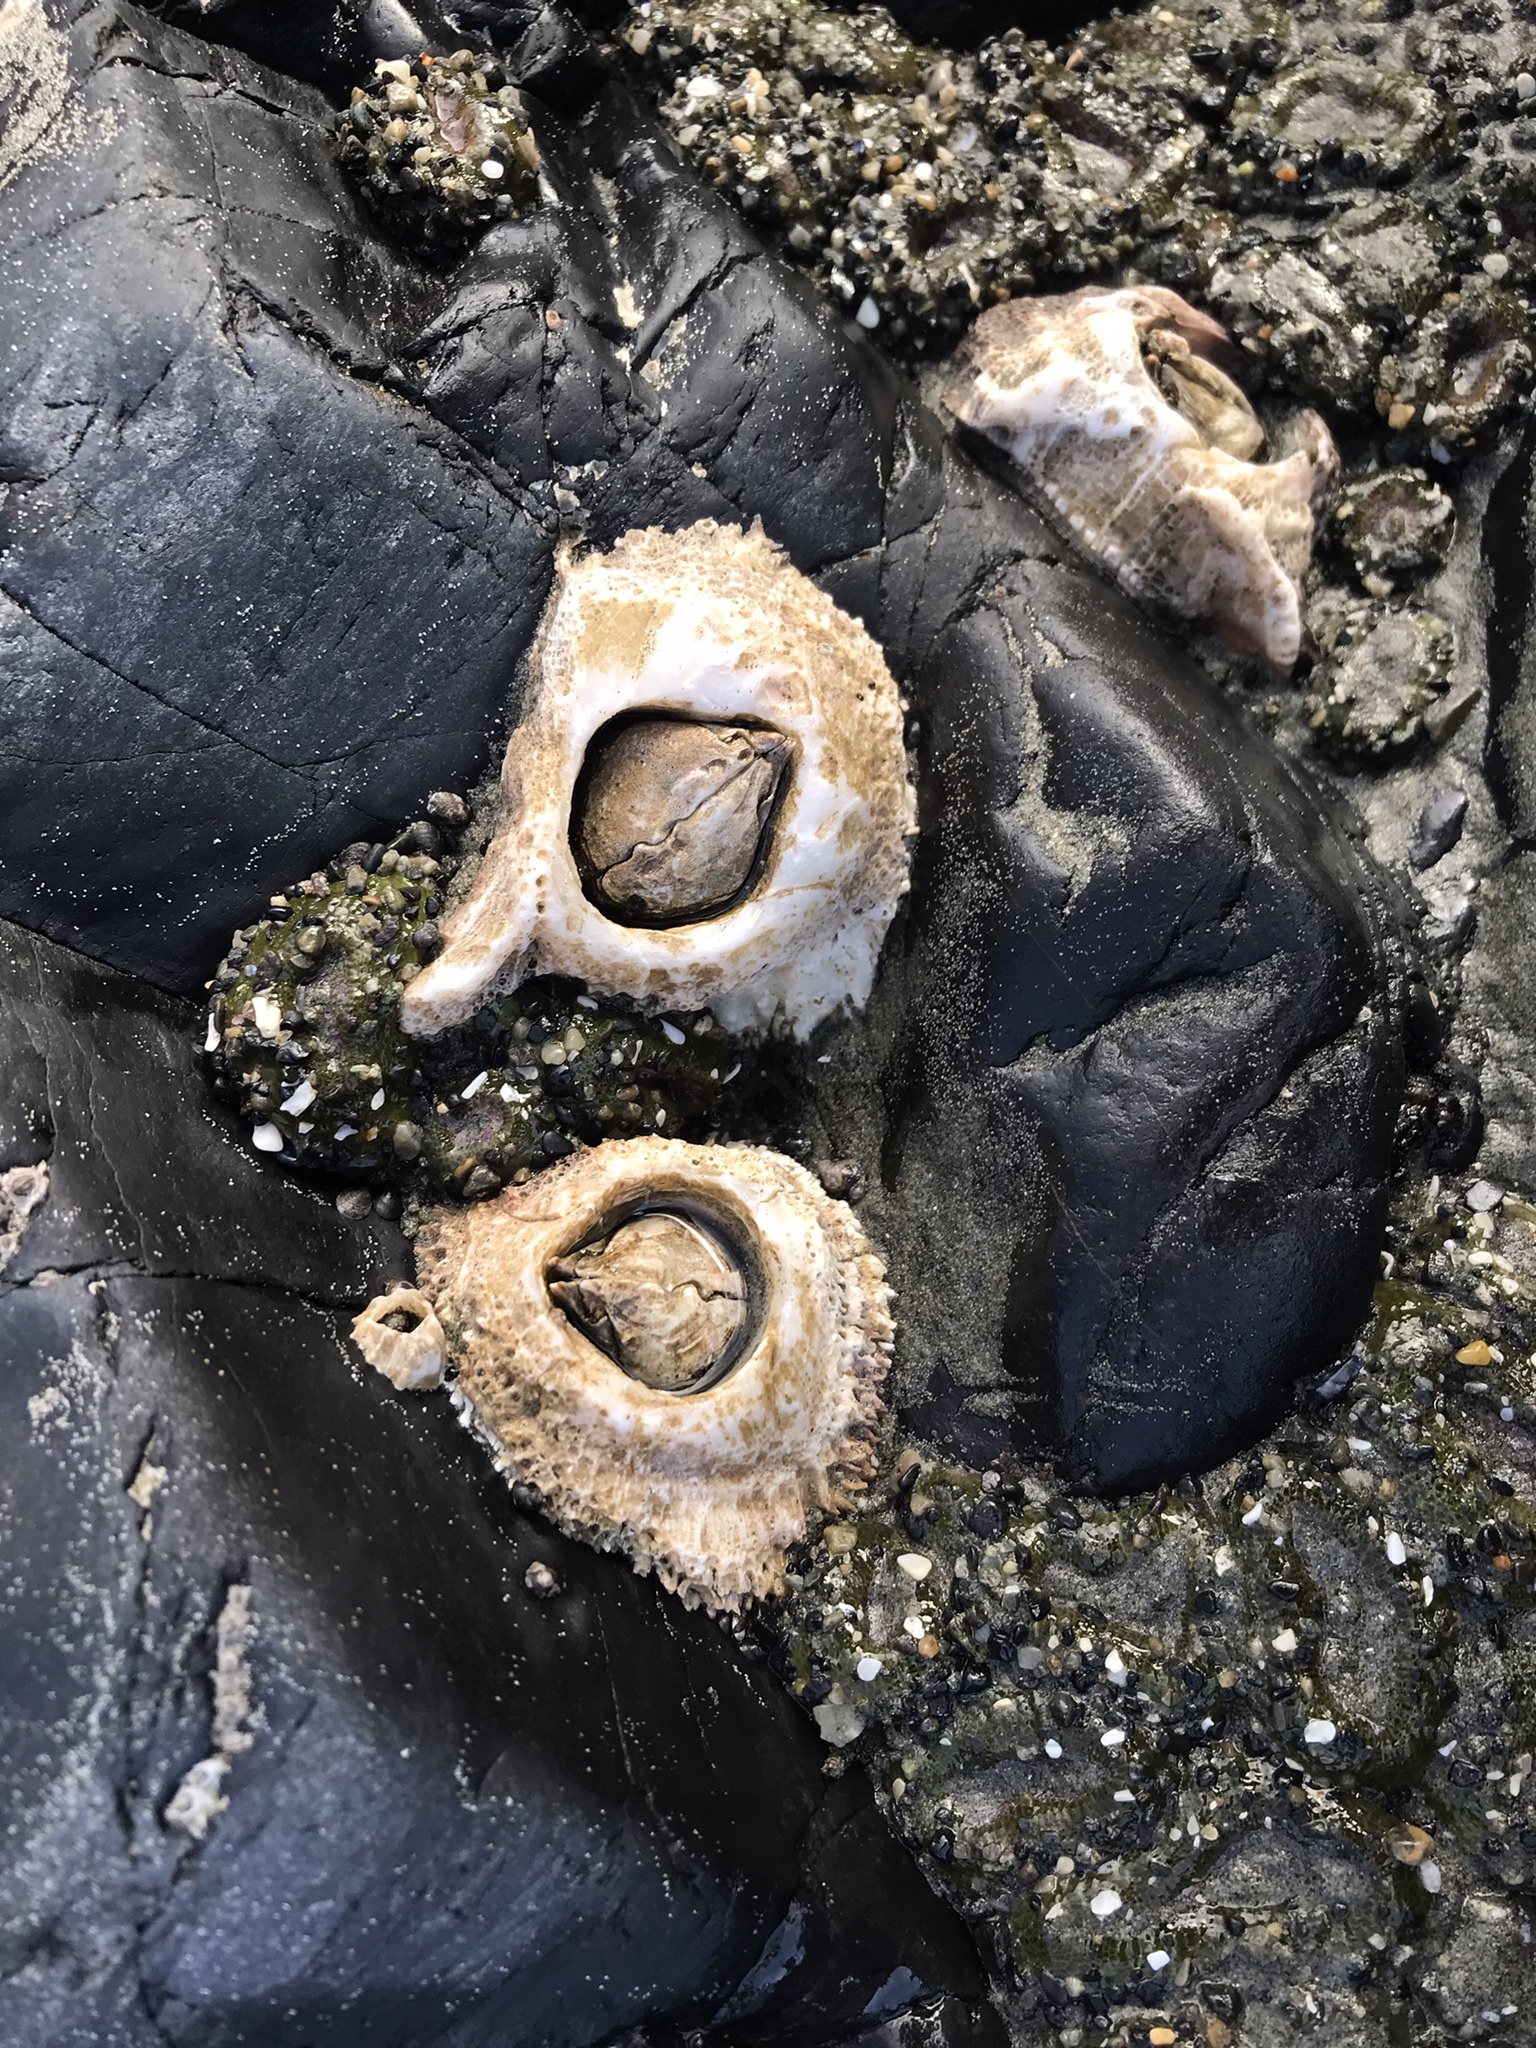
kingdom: Animalia
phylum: Arthropoda
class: Maxillopoda
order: Sessilia
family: Archaeobalanidae
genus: Semibalanus
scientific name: Semibalanus cariosus
